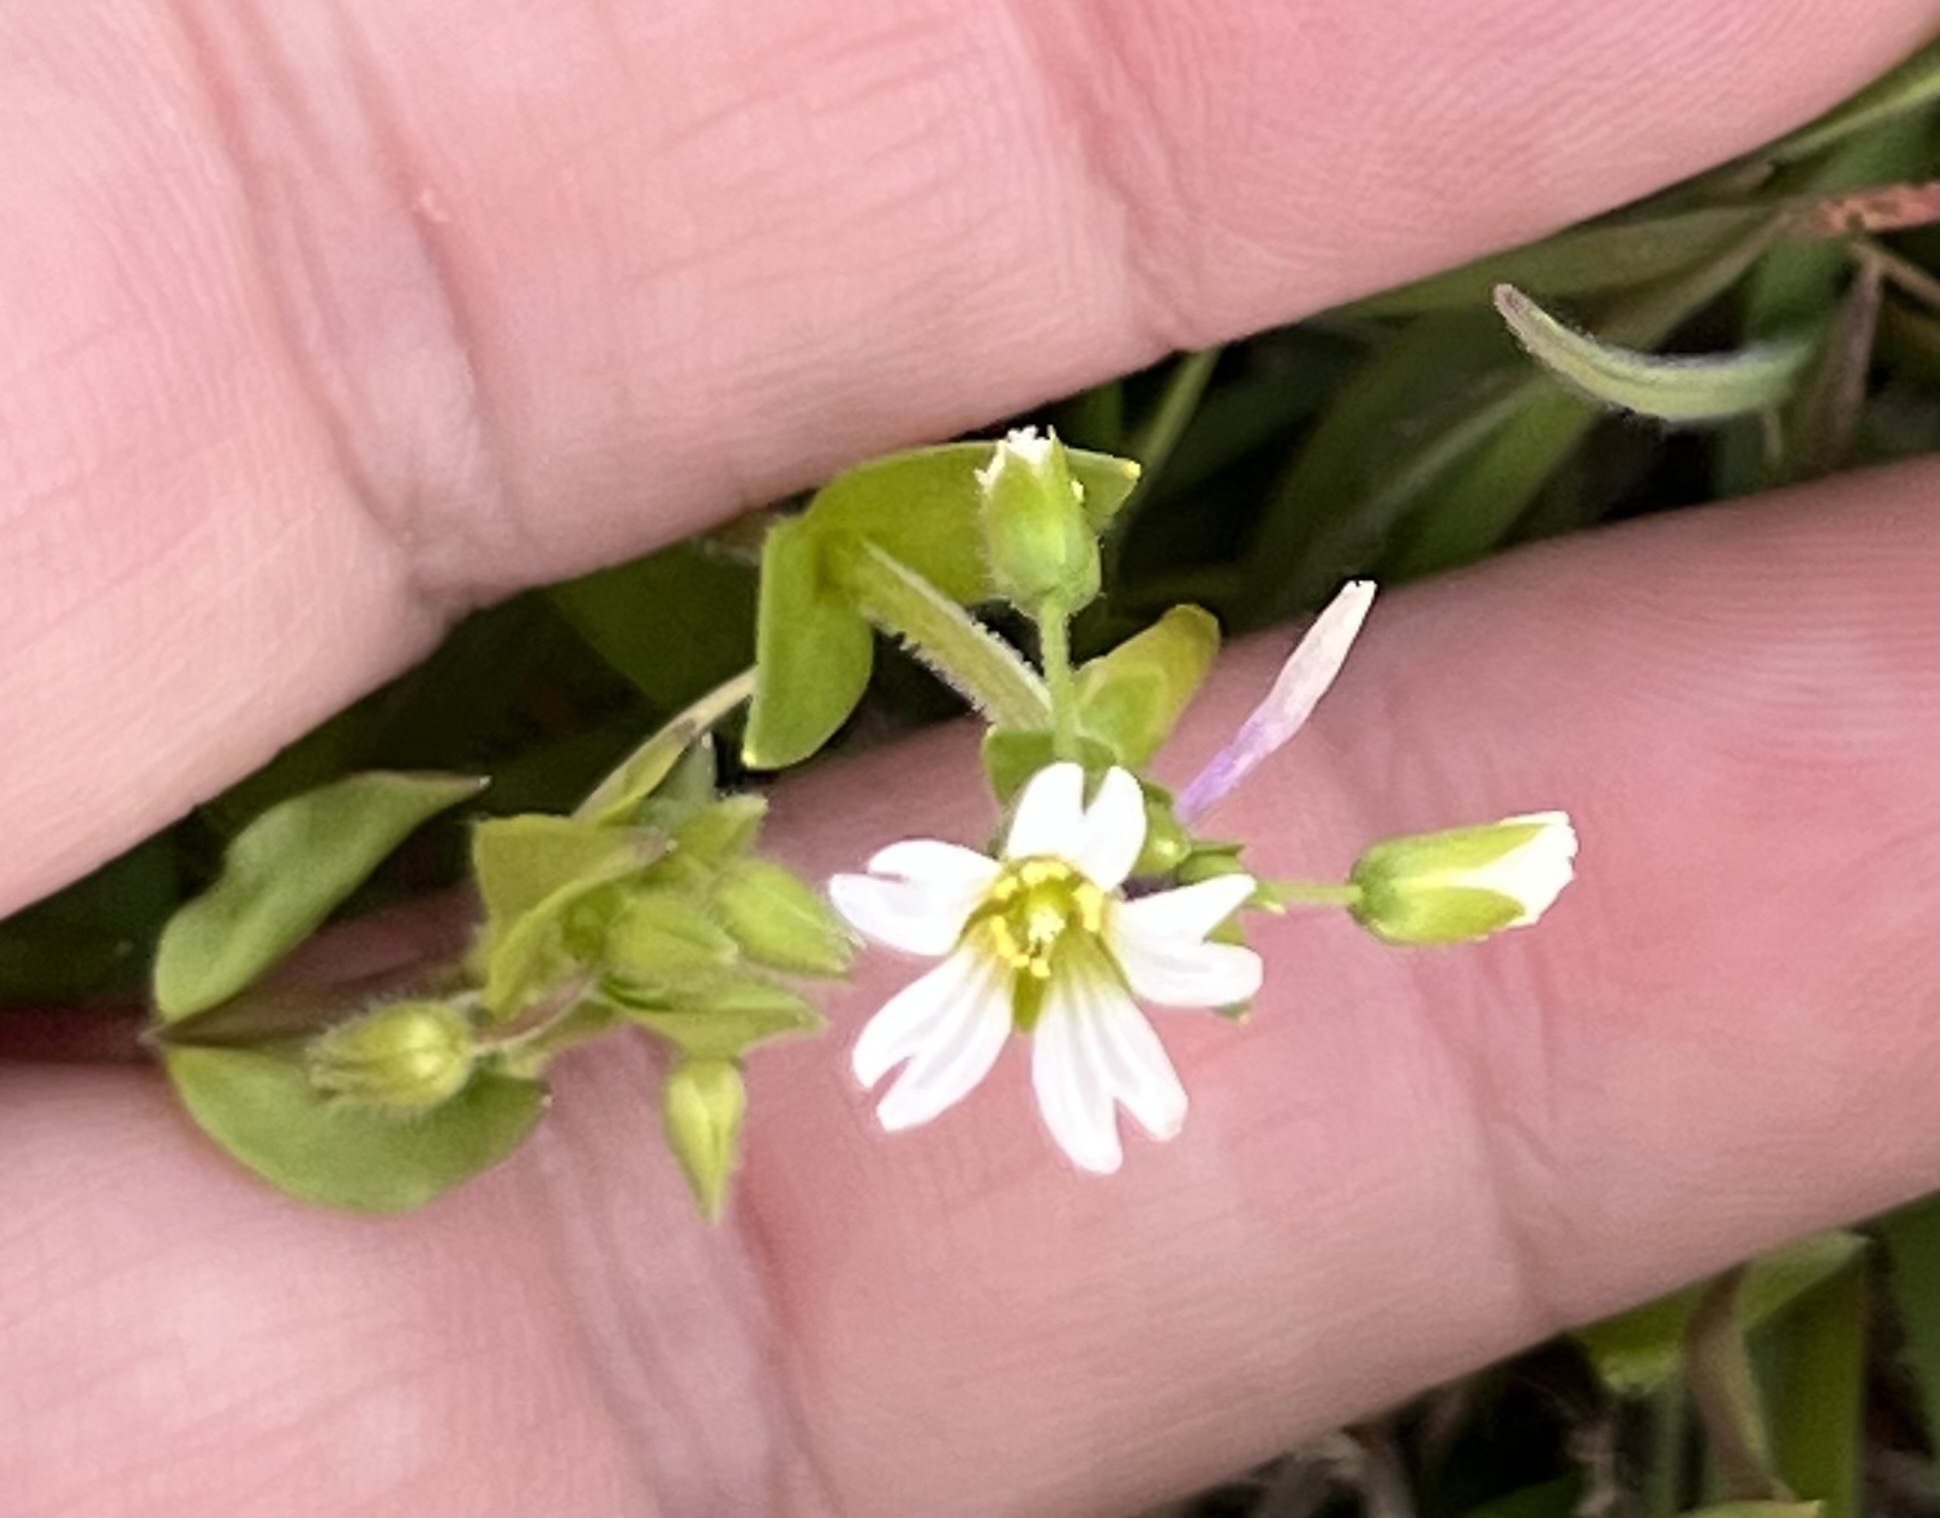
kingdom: Plantae
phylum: Tracheophyta
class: Magnoliopsida
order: Caryophyllales
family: Caryophyllaceae
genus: Stellaria
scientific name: Stellaria media
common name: Common chickweed
